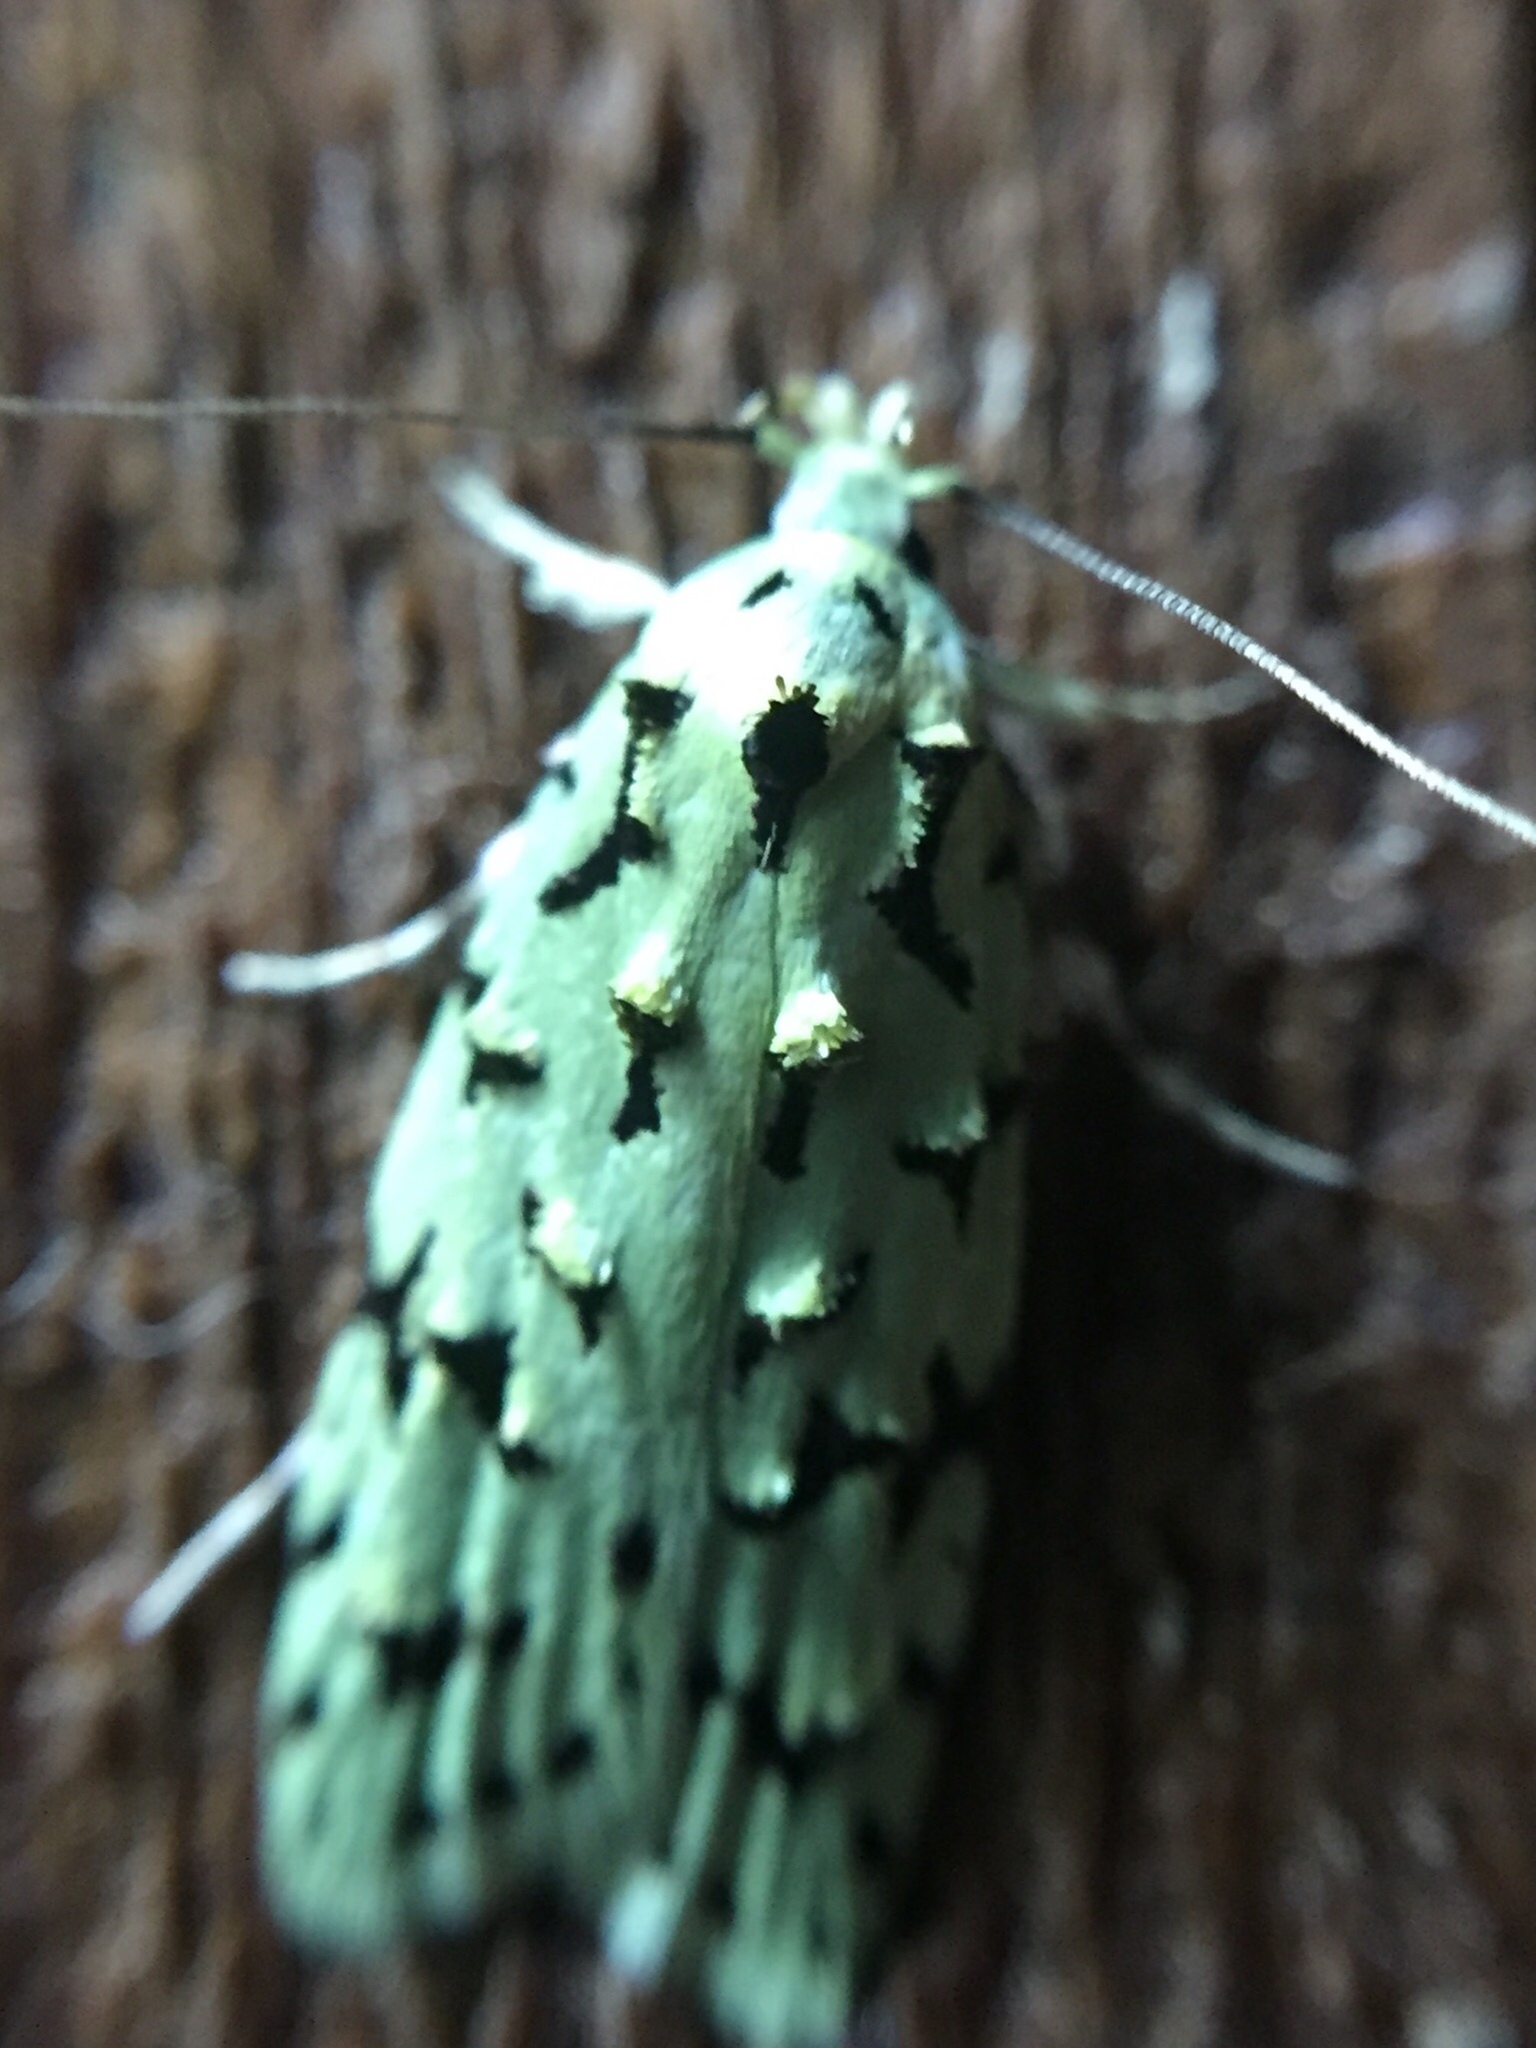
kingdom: Animalia
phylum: Arthropoda
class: Insecta
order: Lepidoptera
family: Oecophoridae
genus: Izatha
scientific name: Izatha peroneanella
